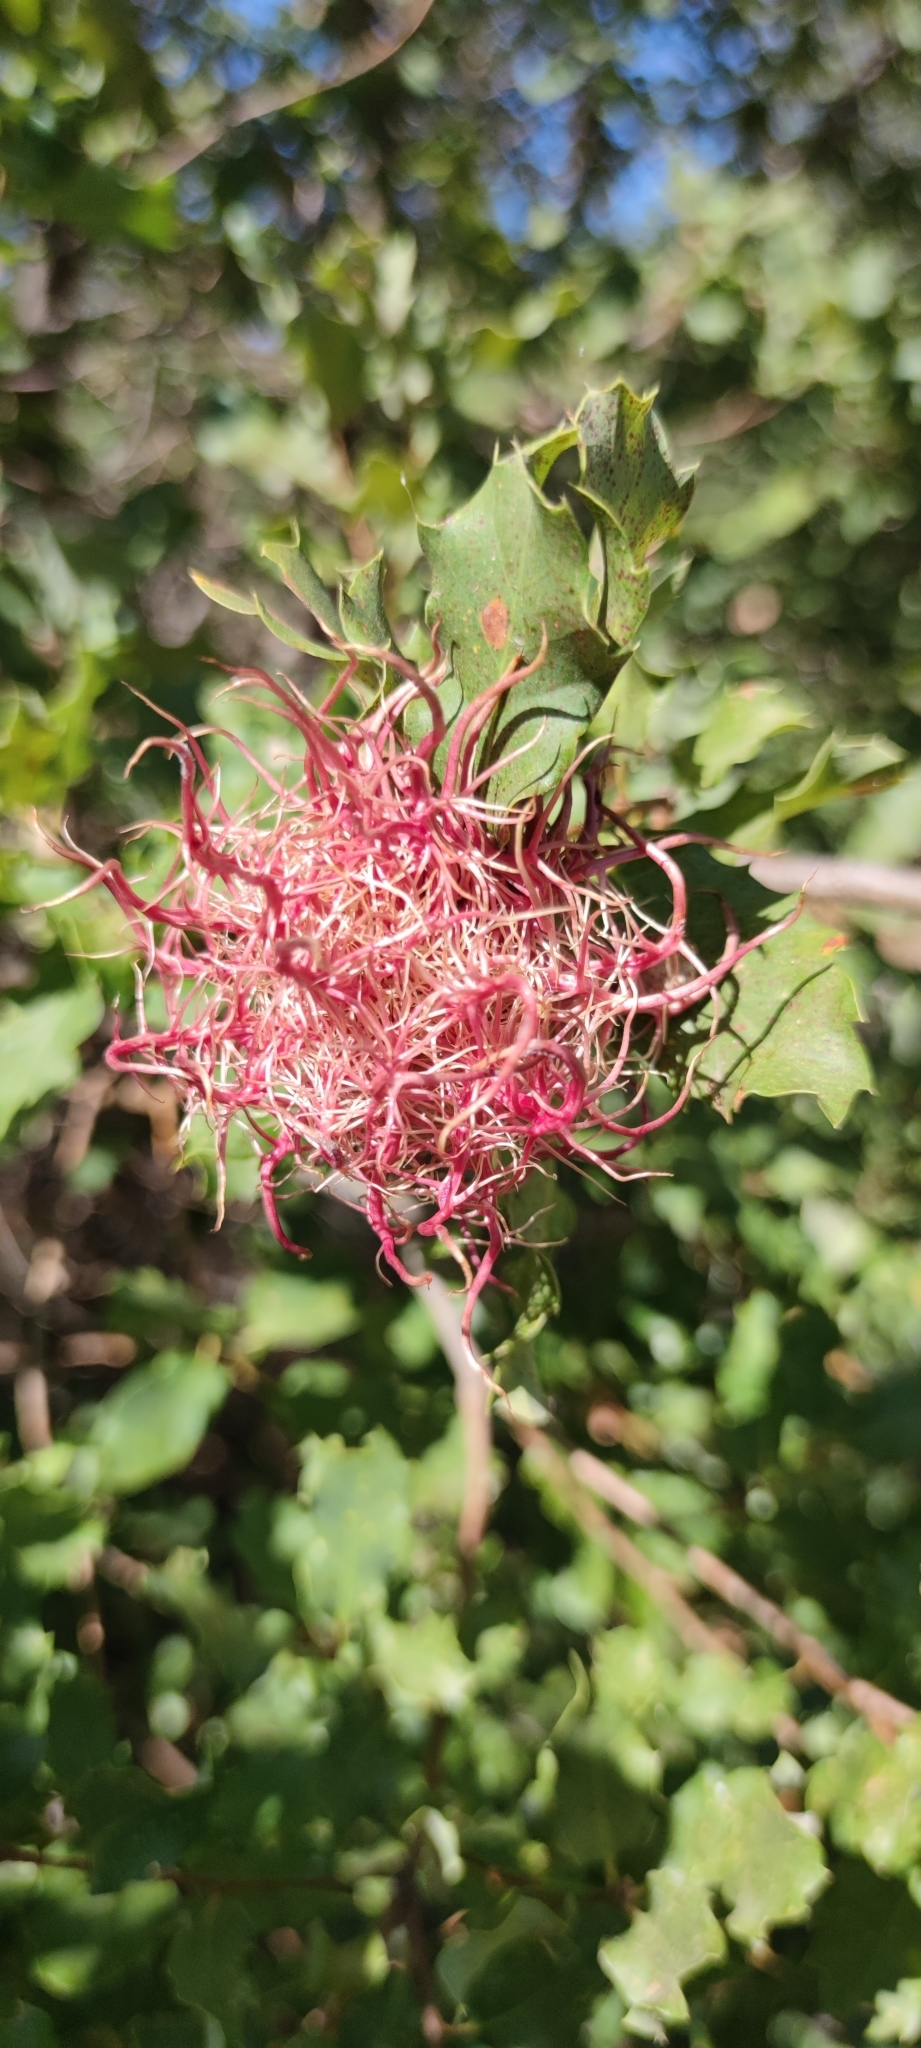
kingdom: Animalia
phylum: Arthropoda
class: Insecta
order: Hymenoptera
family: Cynipidae
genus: Andricus
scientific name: Andricus caputmedusae
